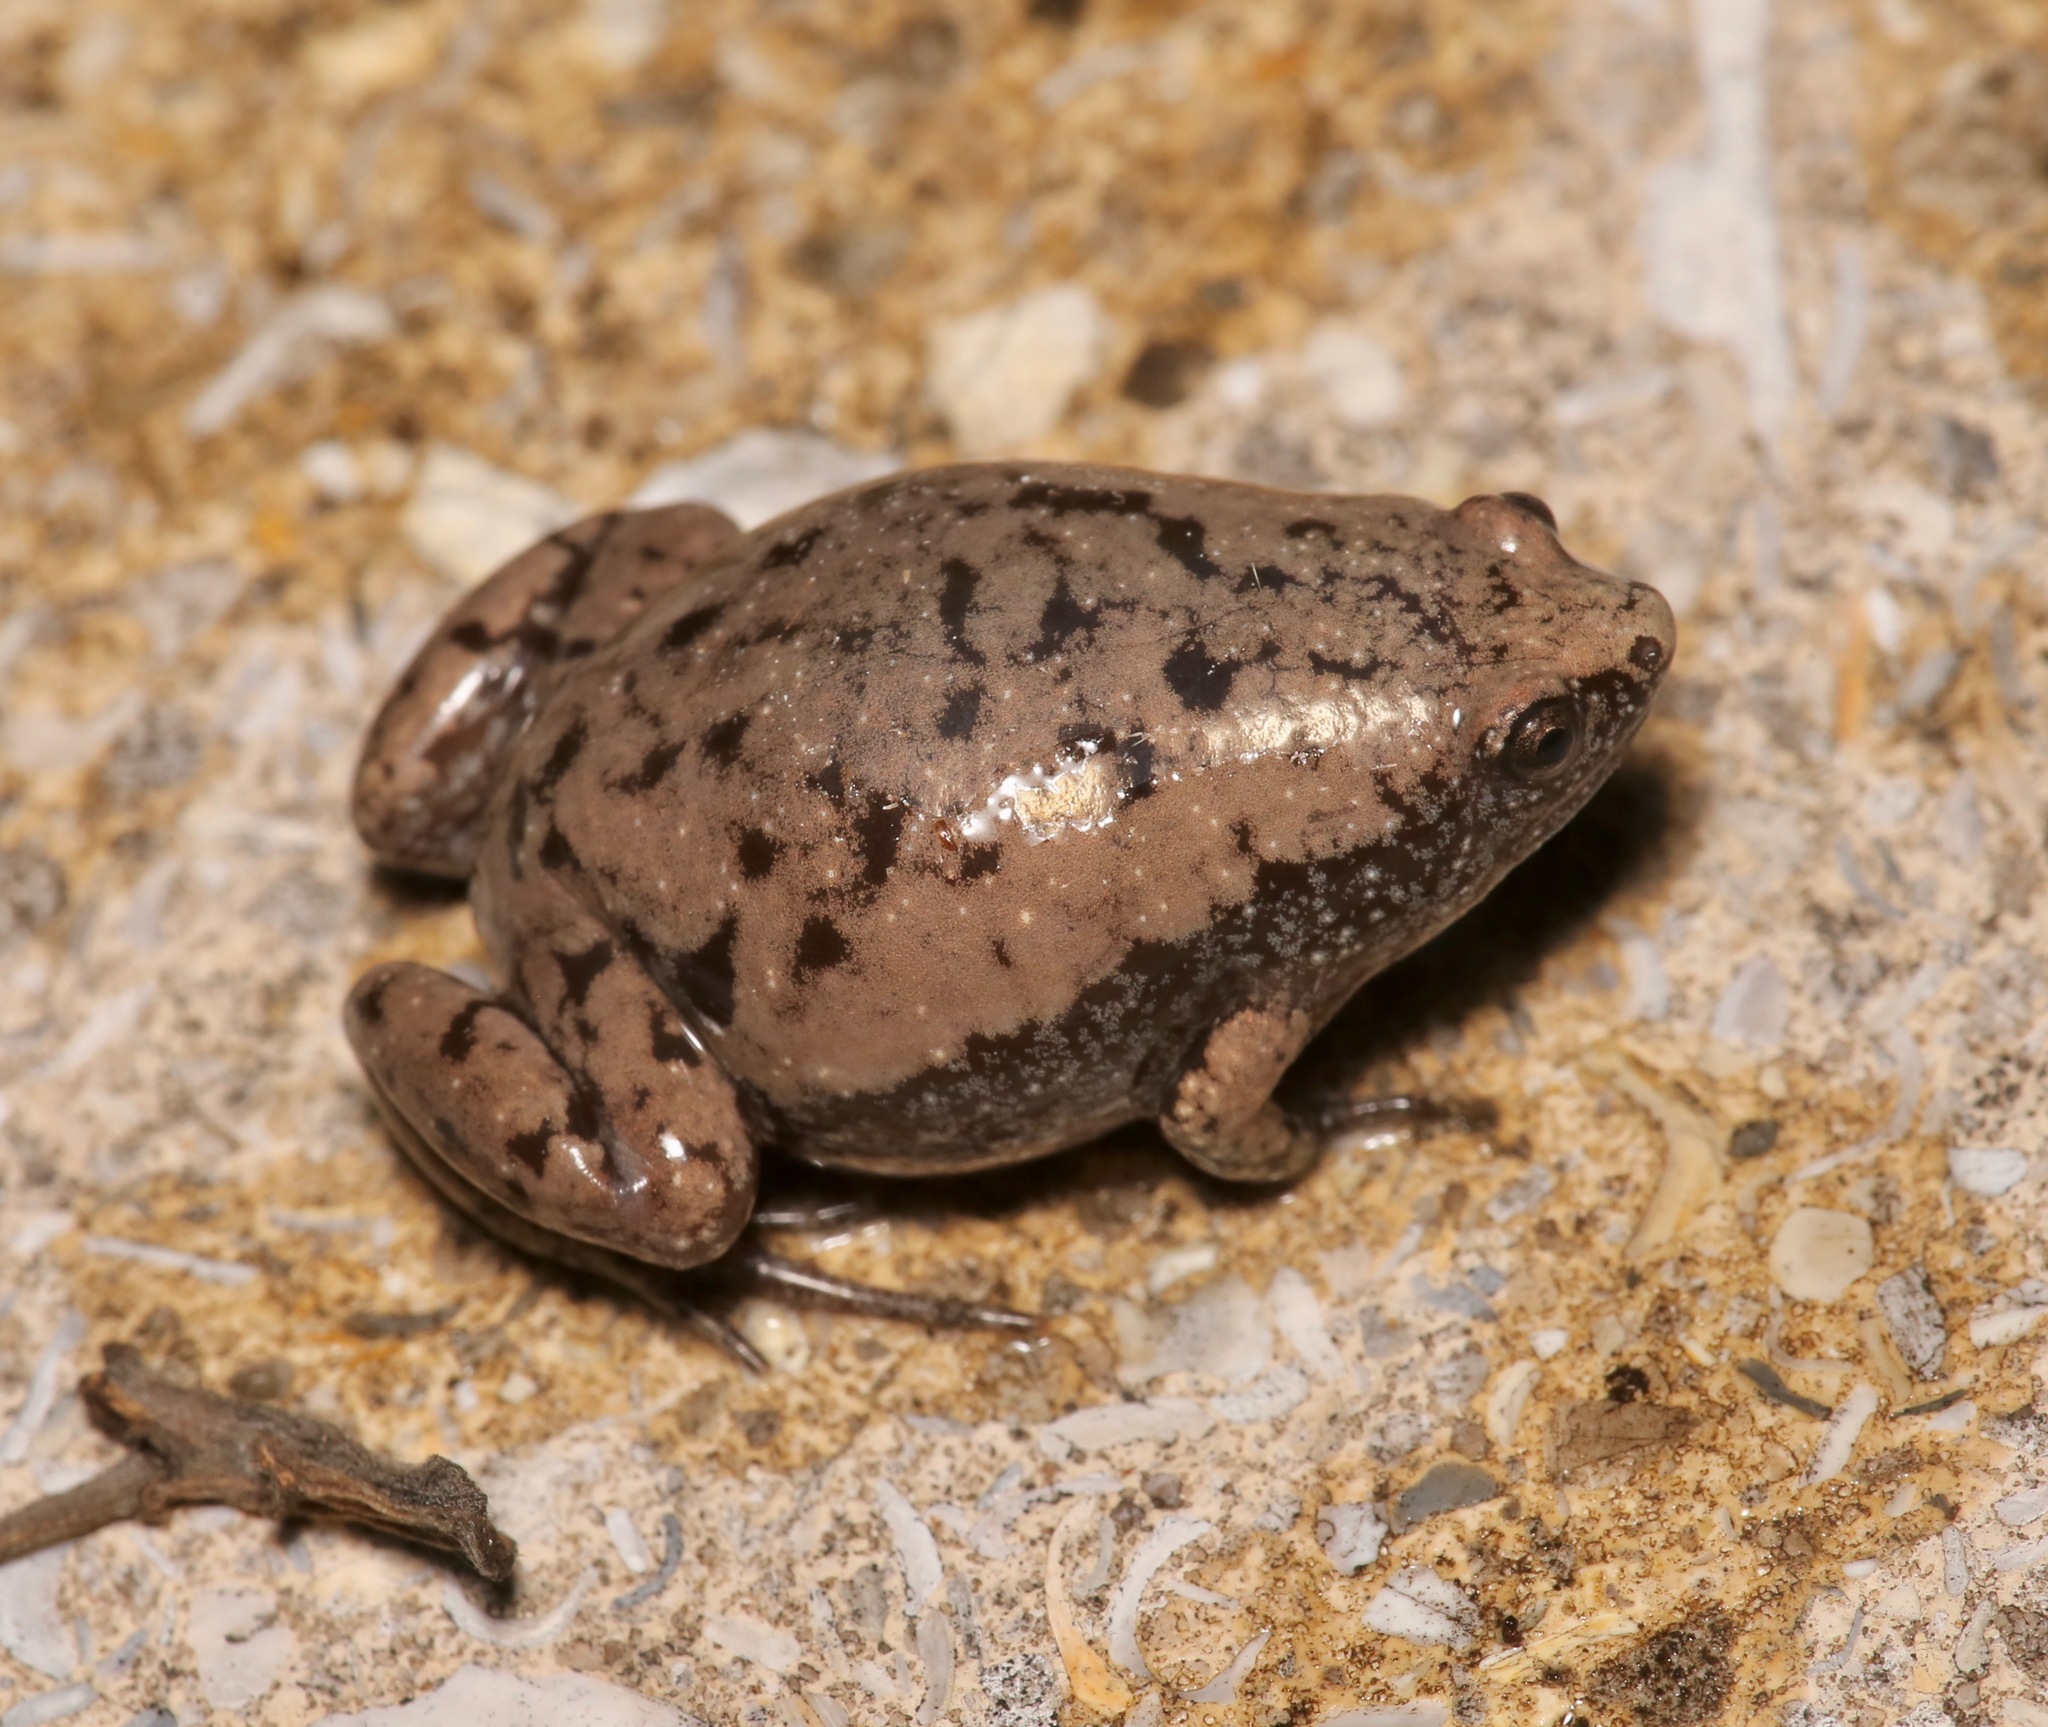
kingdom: Animalia
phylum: Chordata
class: Amphibia
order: Anura
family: Microhylidae
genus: Gastrophryne
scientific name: Gastrophryne carolinensis
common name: Eastern narrowmouth toad
